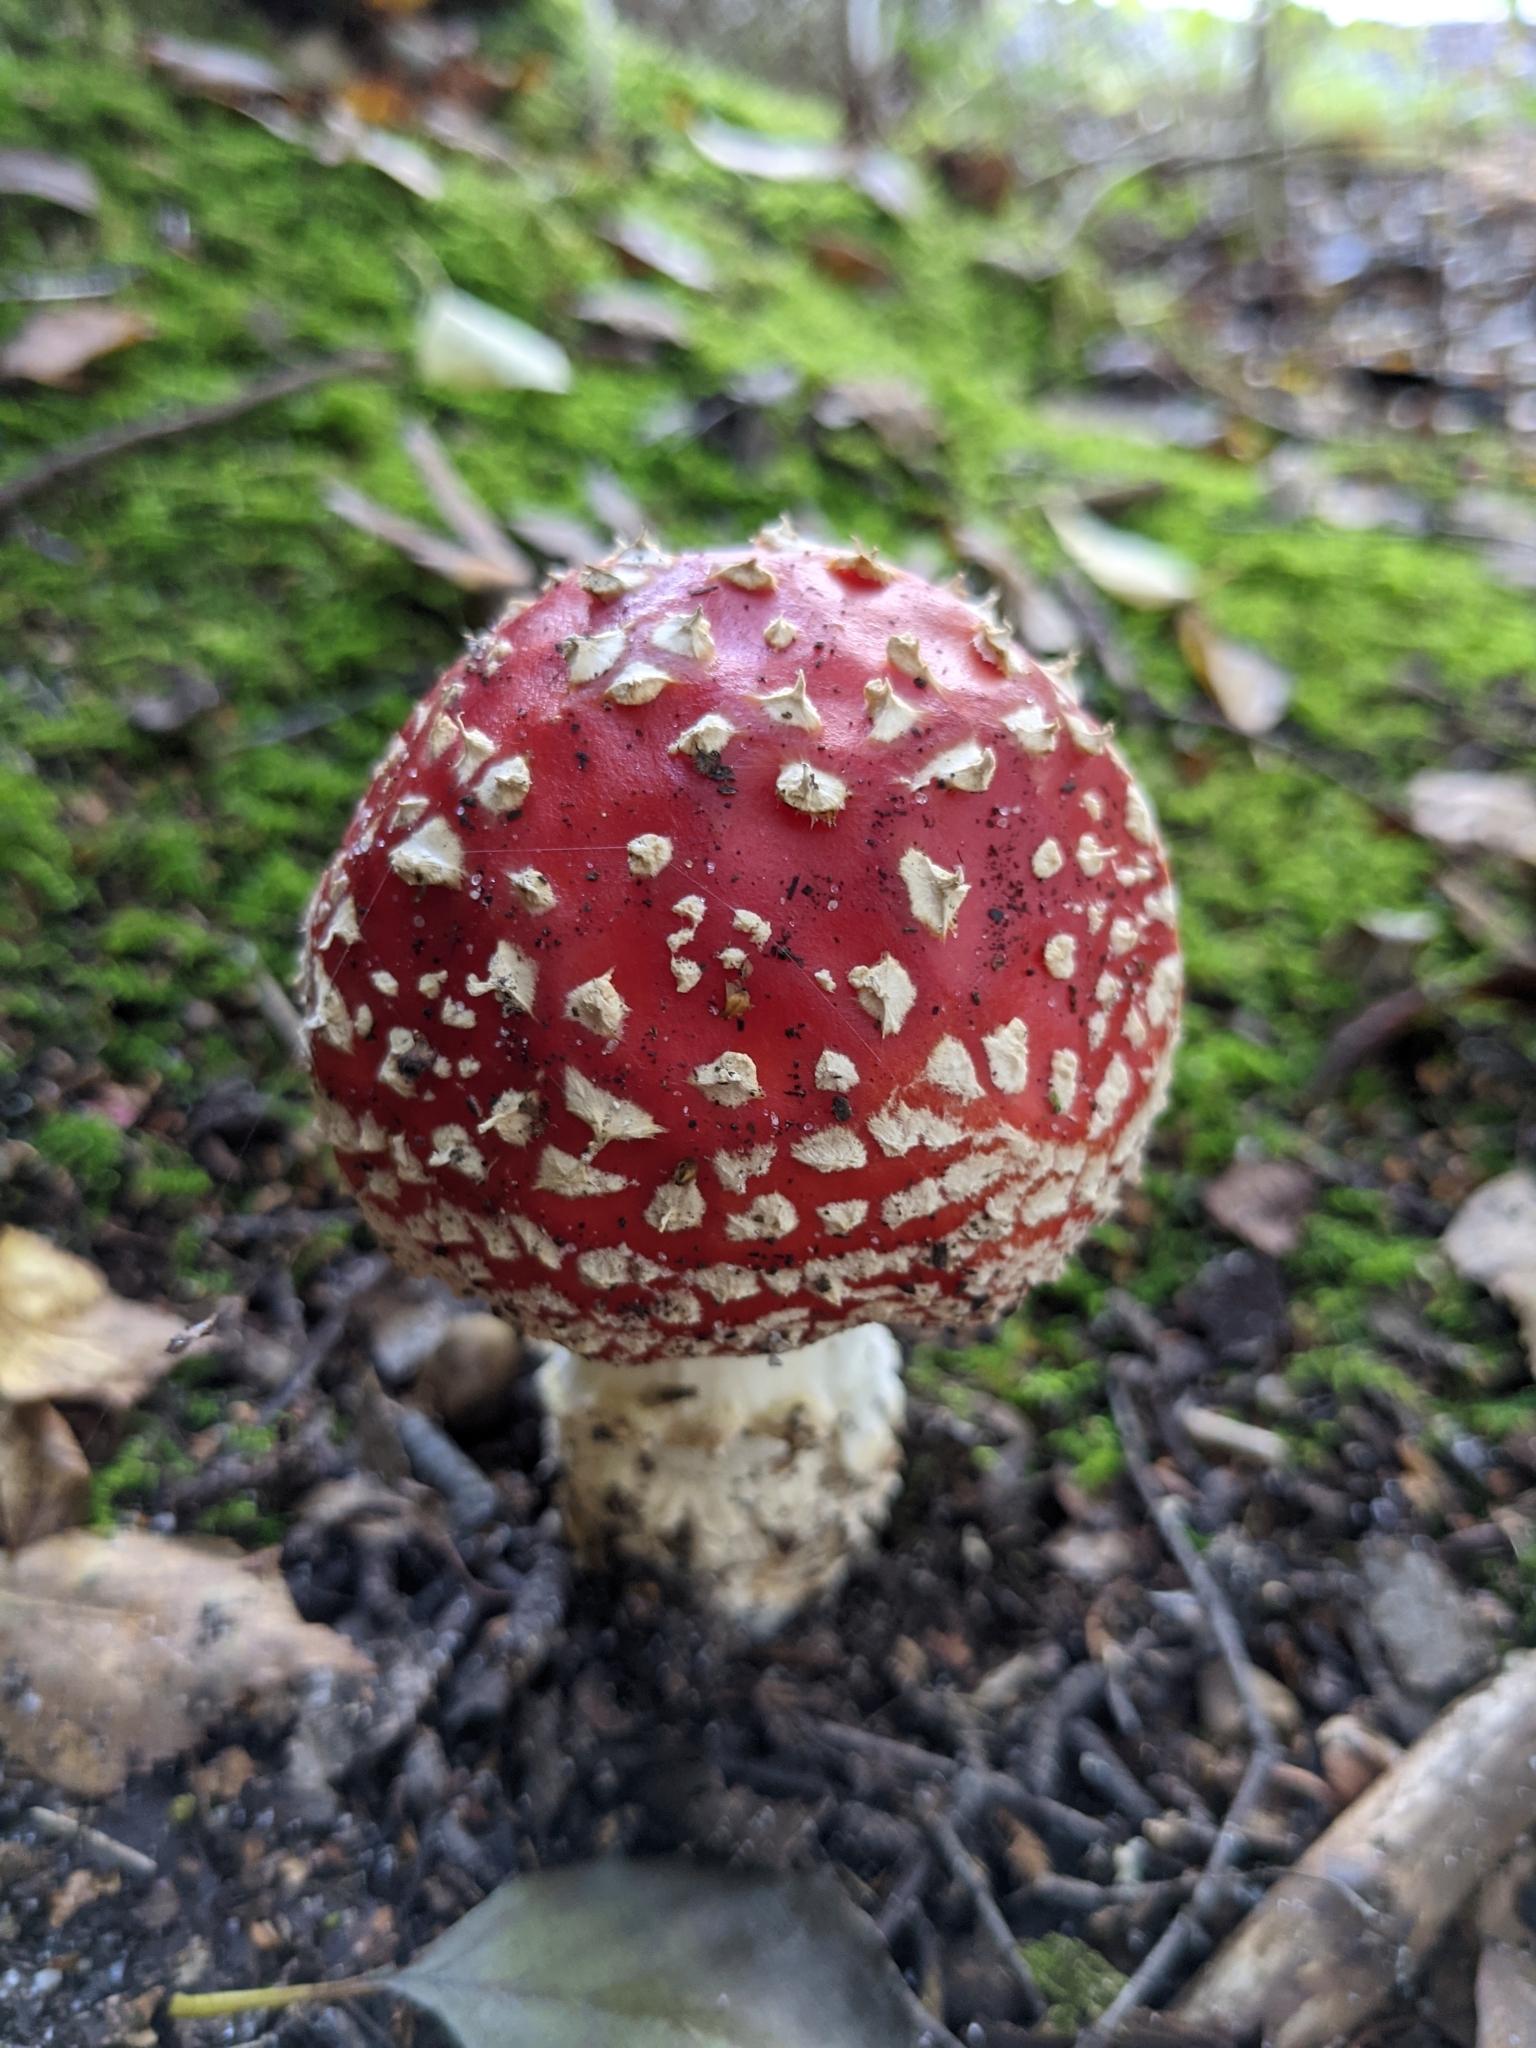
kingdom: Fungi
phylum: Basidiomycota
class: Agaricomycetes
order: Agaricales
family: Amanitaceae
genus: Amanita
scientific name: Amanita muscaria
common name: Fly agaric
